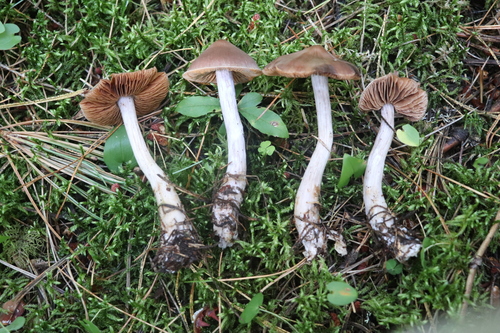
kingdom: Fungi
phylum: Basidiomycota
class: Agaricomycetes
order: Agaricales
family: Cortinariaceae
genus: Cortinarius
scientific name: Cortinarius saturninus
